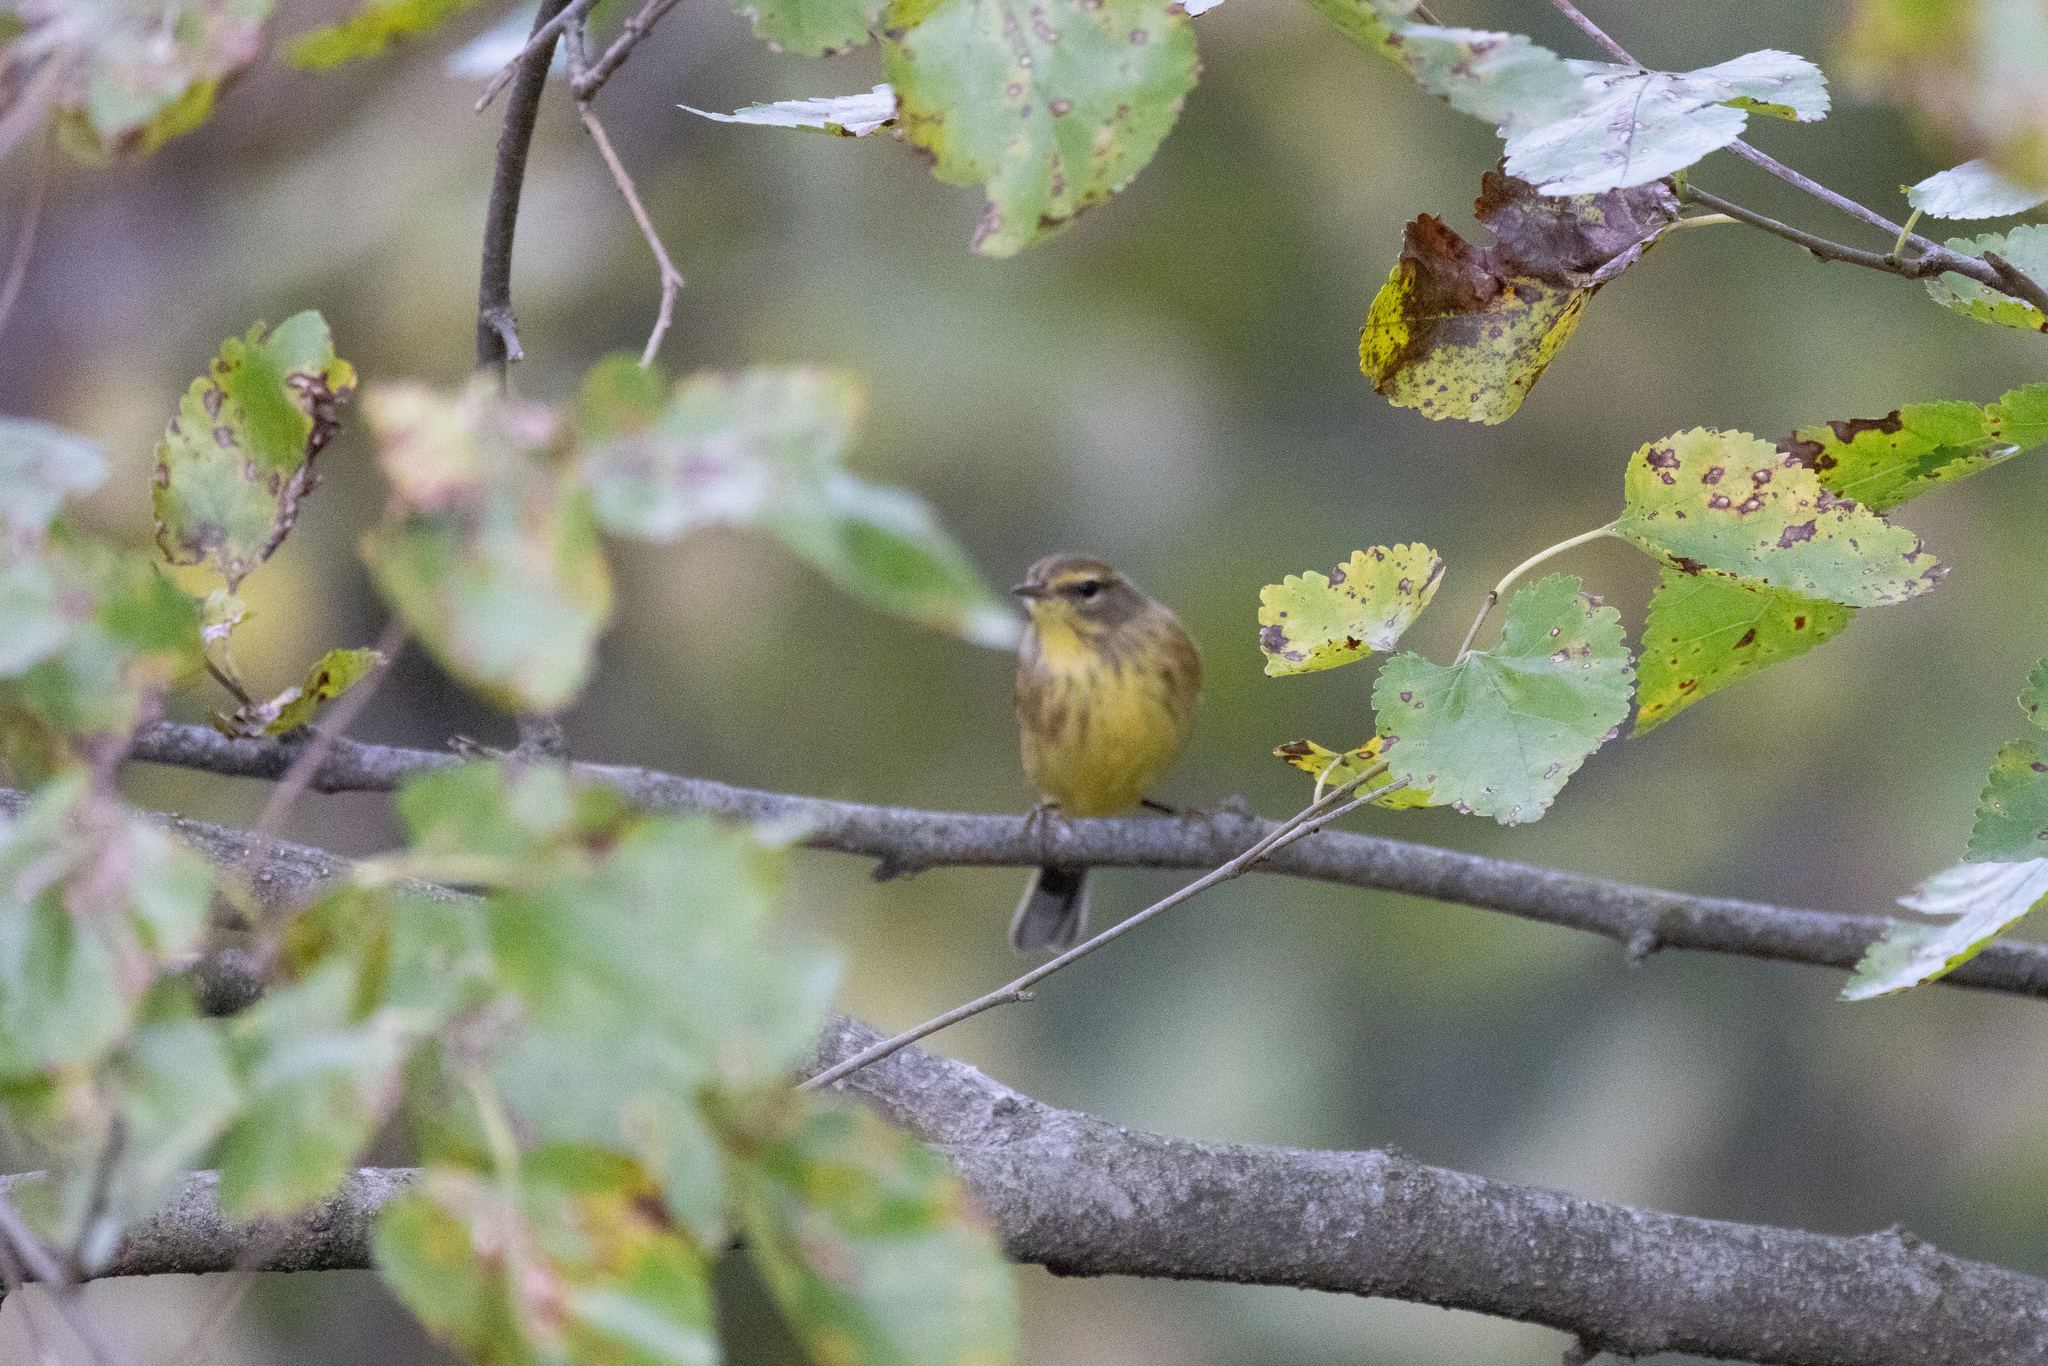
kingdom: Animalia
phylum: Chordata
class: Aves
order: Passeriformes
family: Parulidae
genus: Setophaga
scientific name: Setophaga palmarum
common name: Palm warbler
